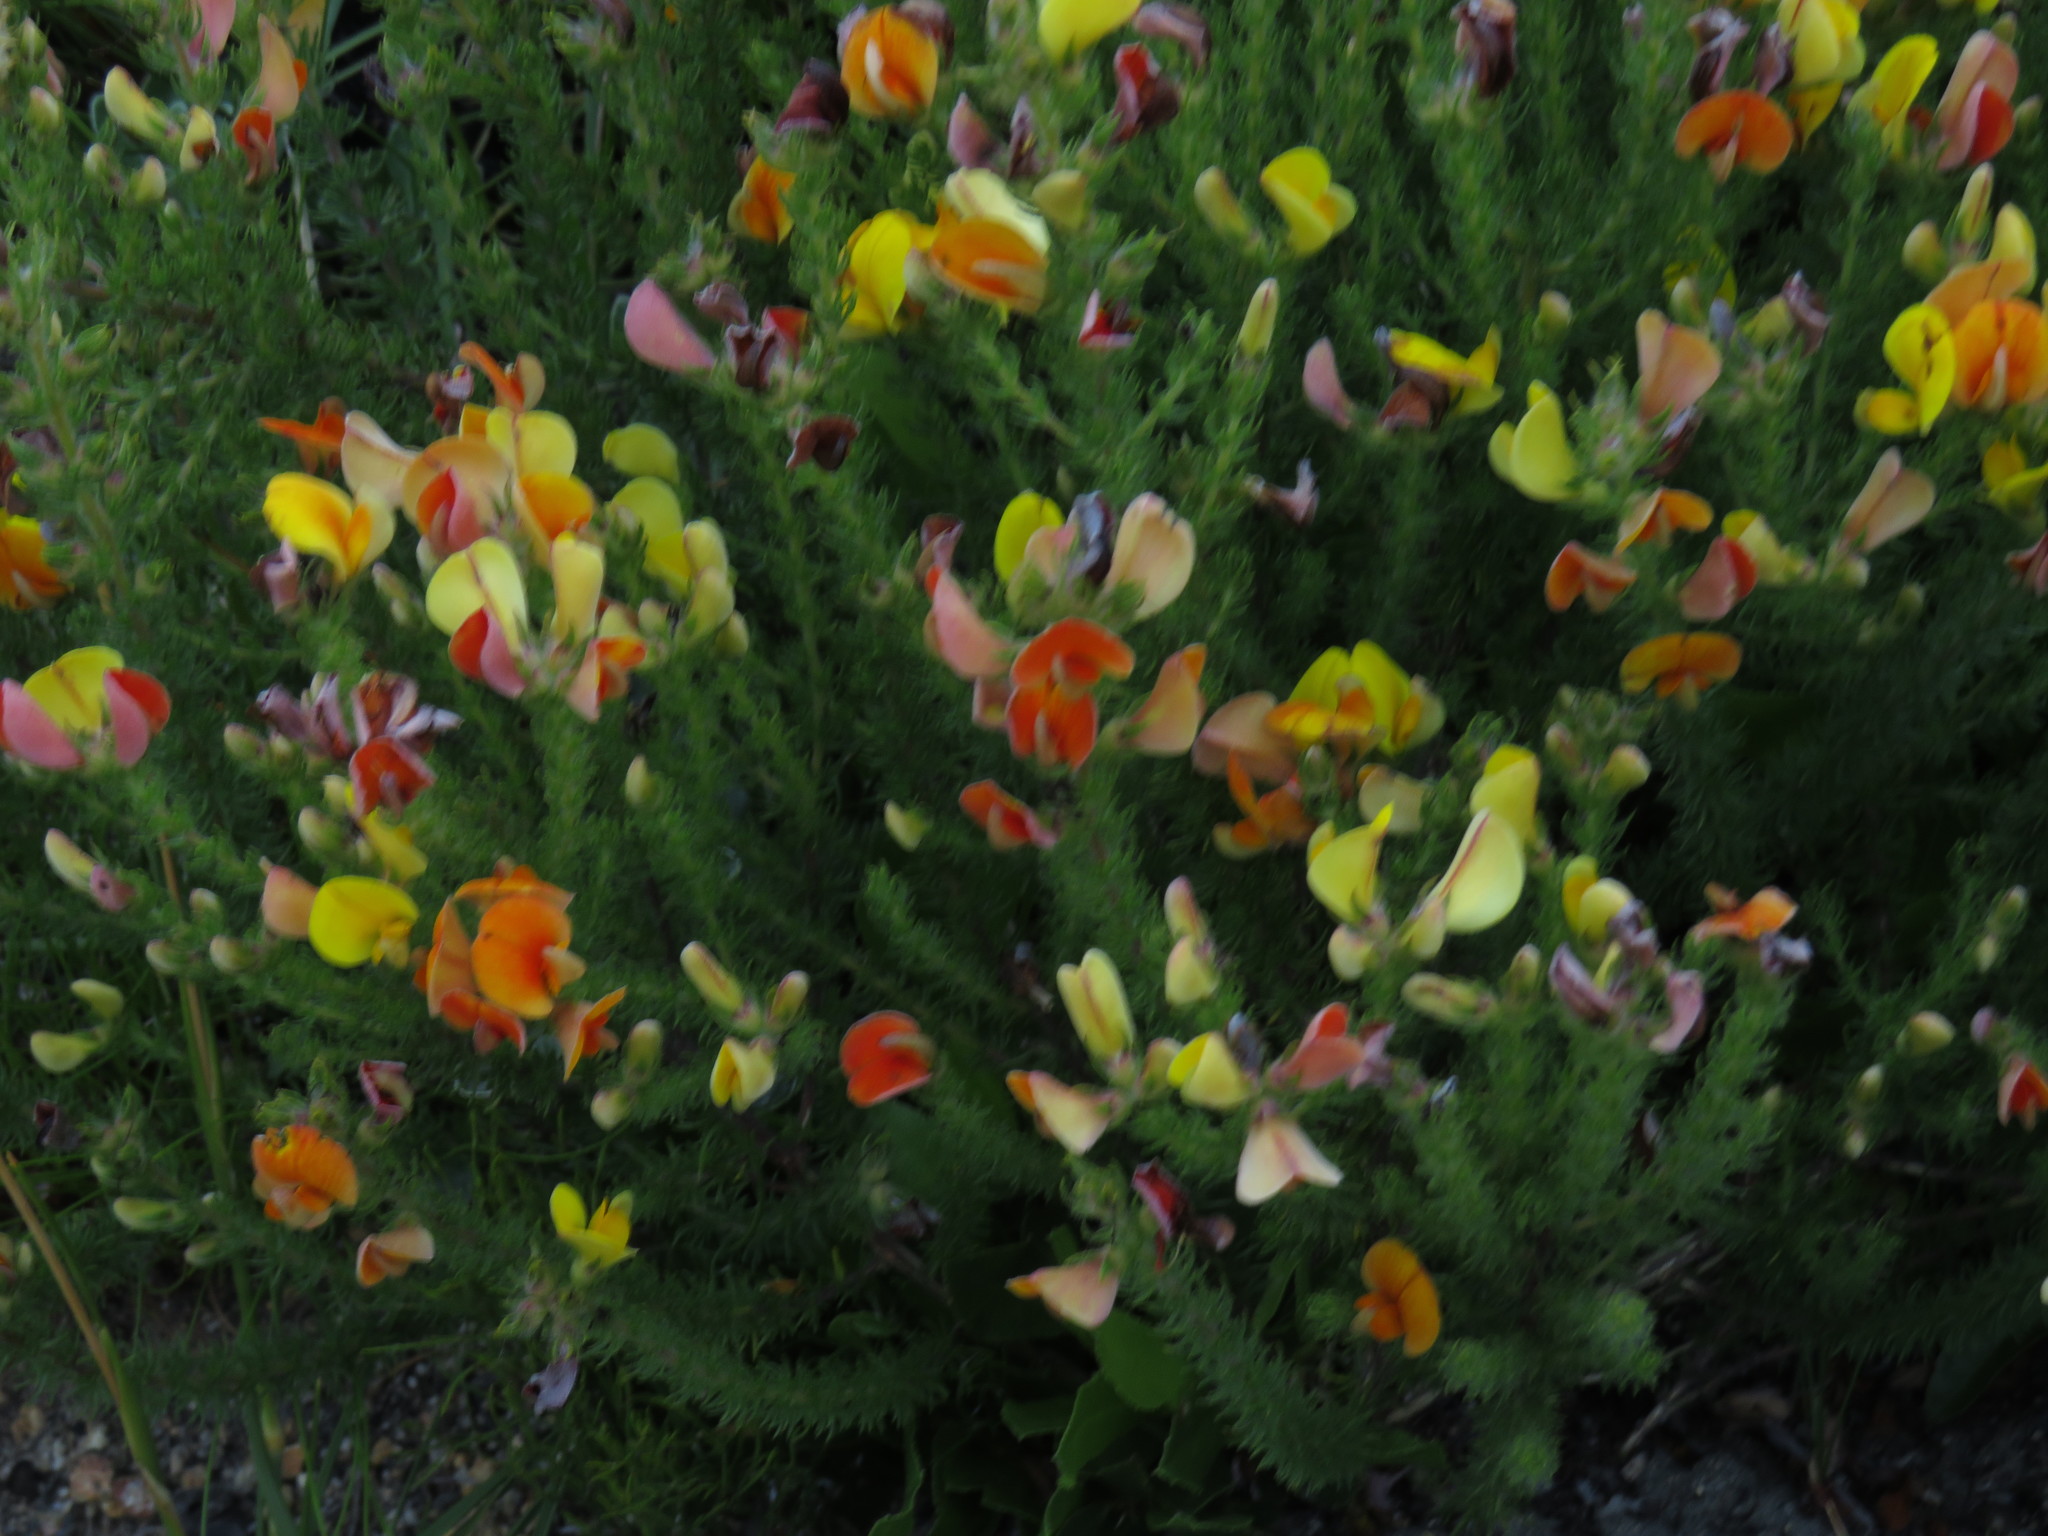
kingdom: Plantae
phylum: Tracheophyta
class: Magnoliopsida
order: Fabales
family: Fabaceae
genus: Aspalathus
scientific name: Aspalathus ciliaris
